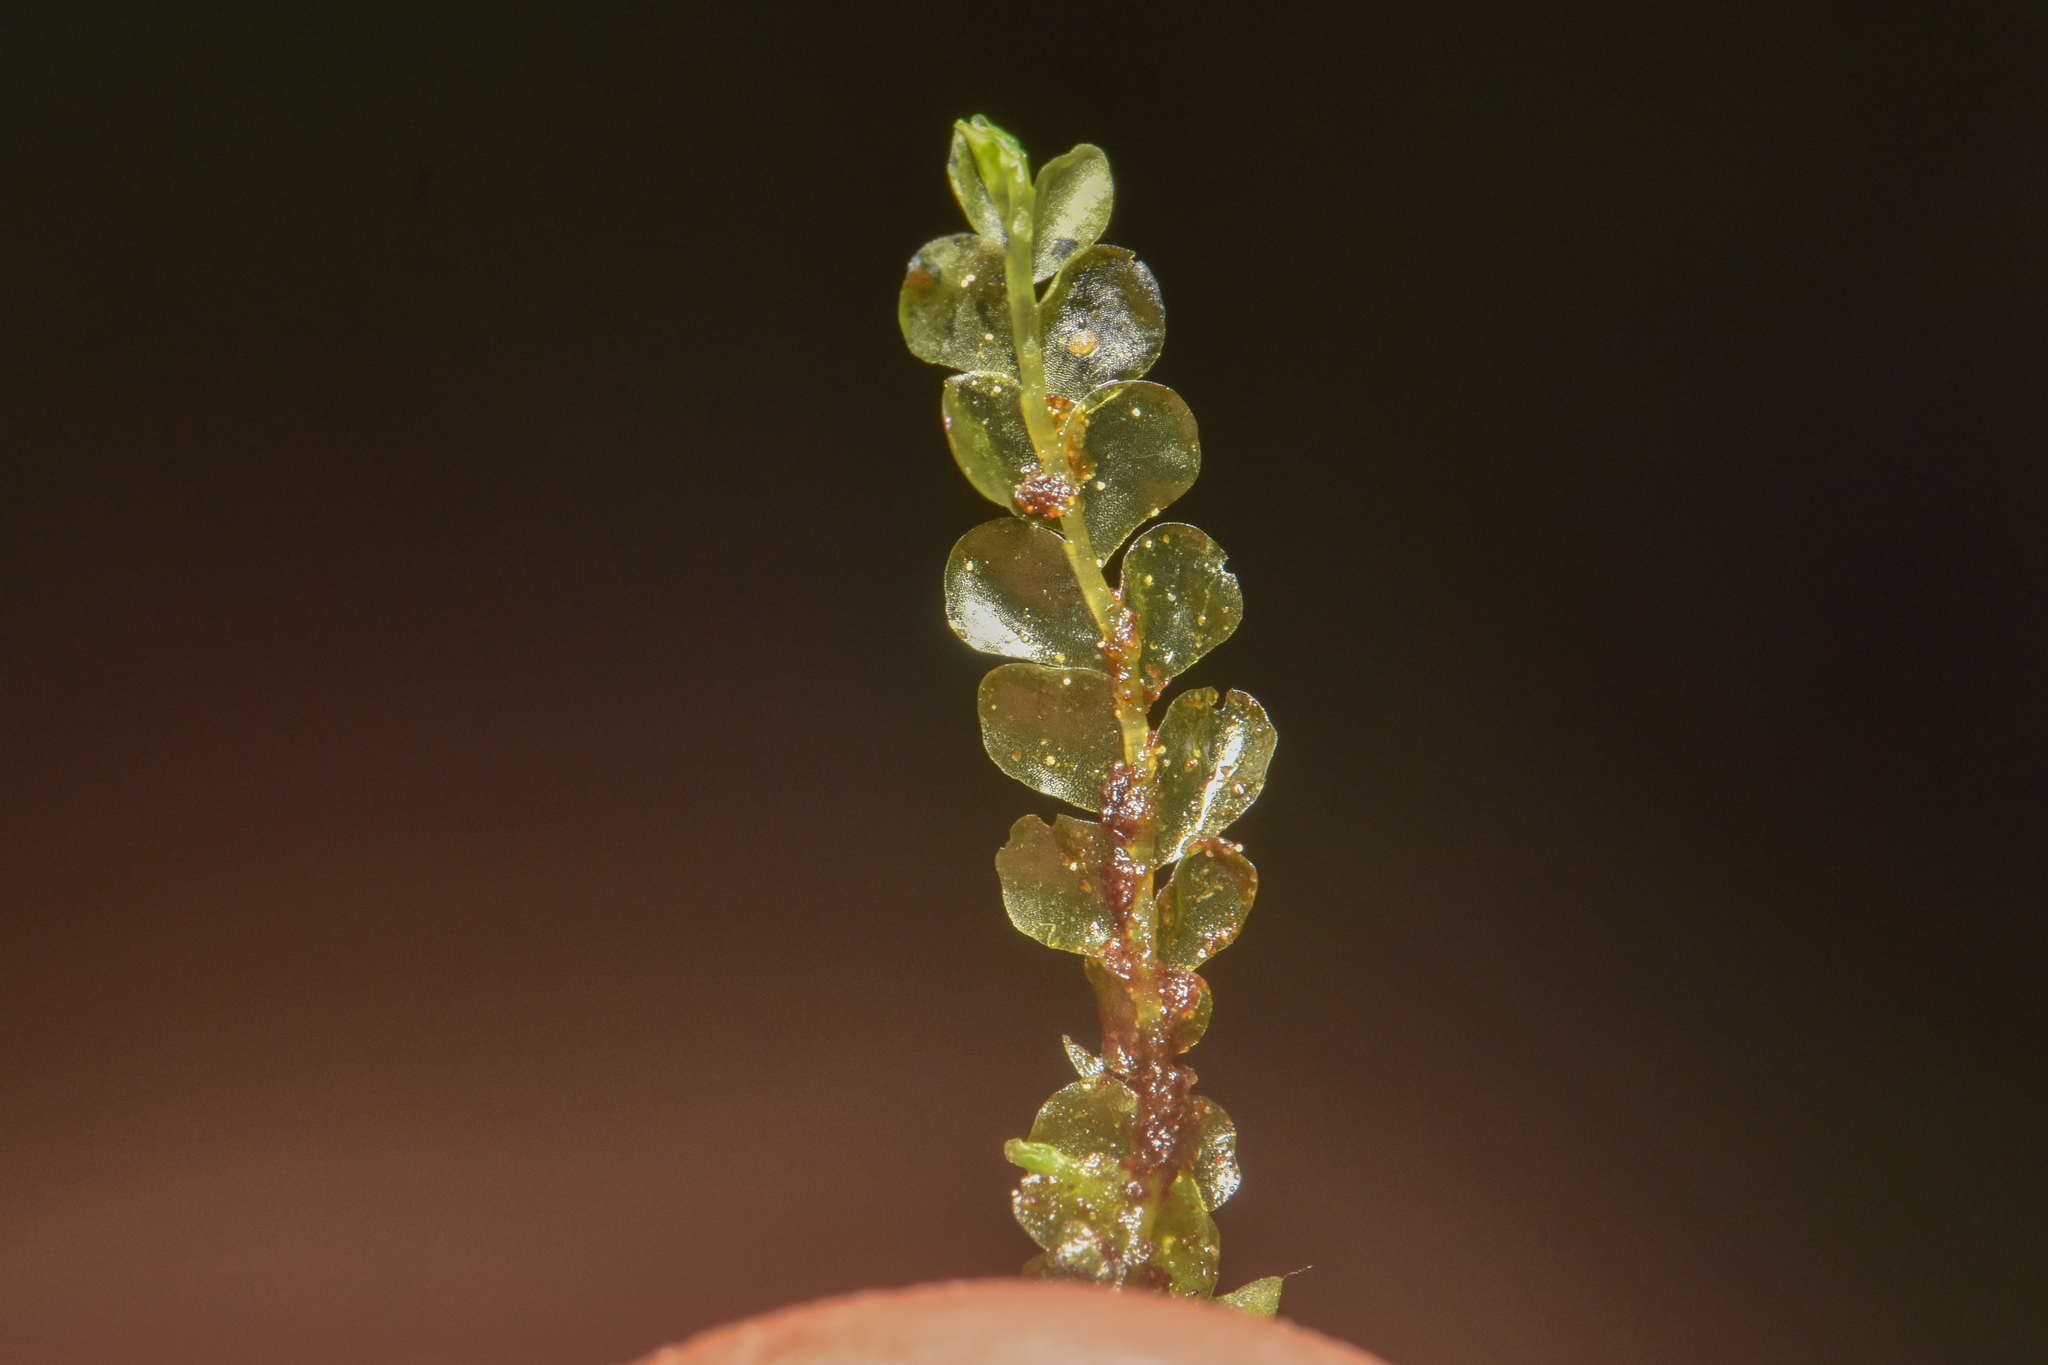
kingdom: Plantae
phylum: Marchantiophyta
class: Jungermanniopsida
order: Jungermanniales
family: Lophocoleaceae
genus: Chiloscyphus
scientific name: Chiloscyphus polyanthos
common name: Square-leaved crestwort
